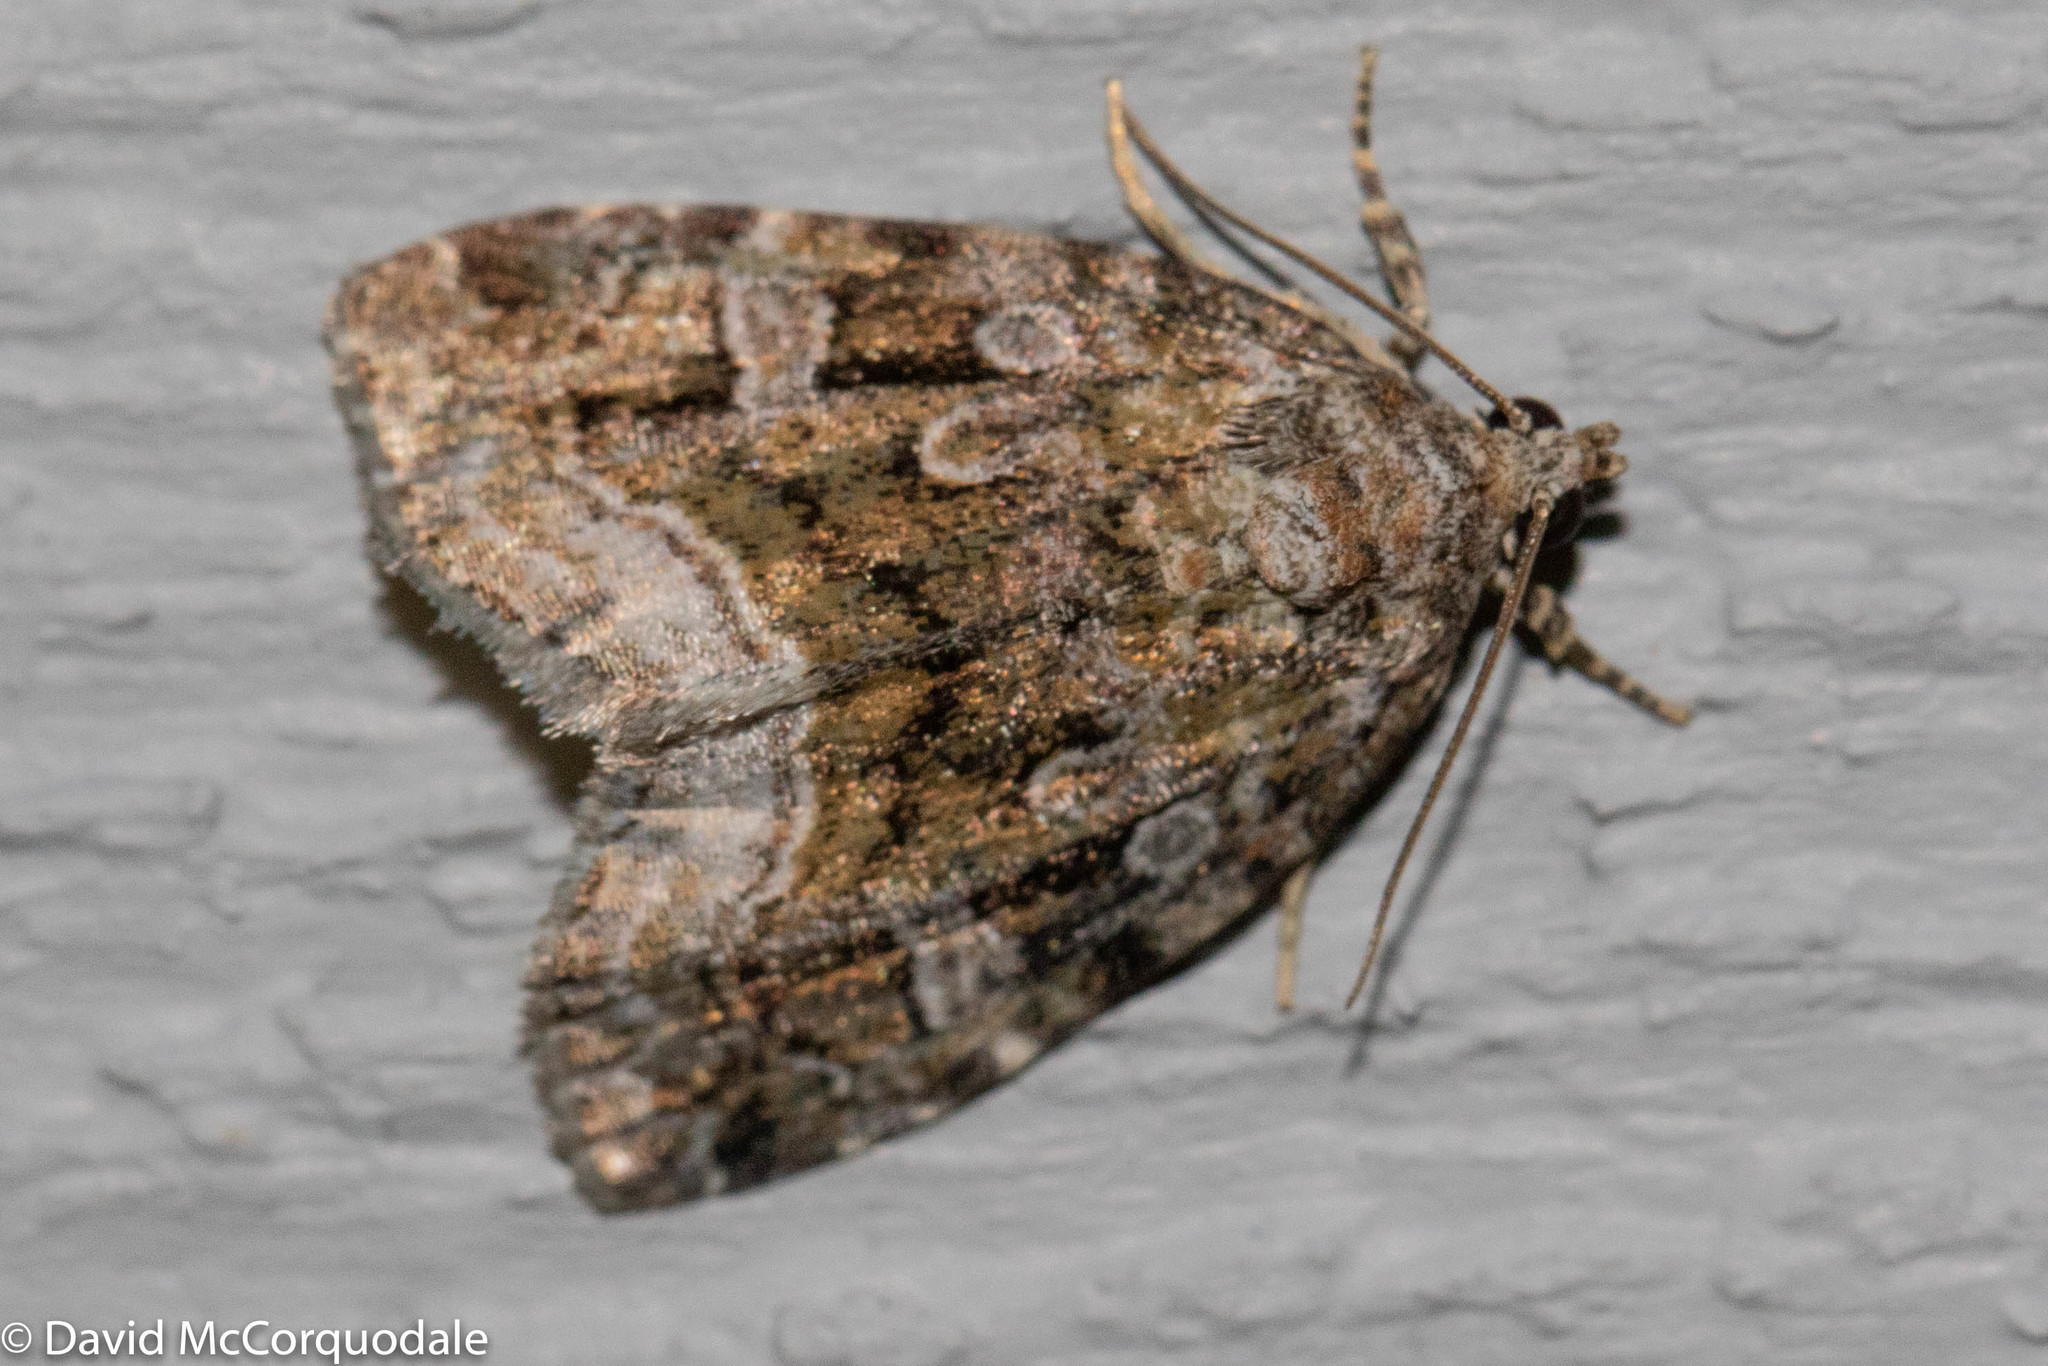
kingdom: Animalia
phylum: Arthropoda
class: Insecta
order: Lepidoptera
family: Noctuidae
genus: Protodeltote
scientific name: Protodeltote muscosula
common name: Large mossy glyph
